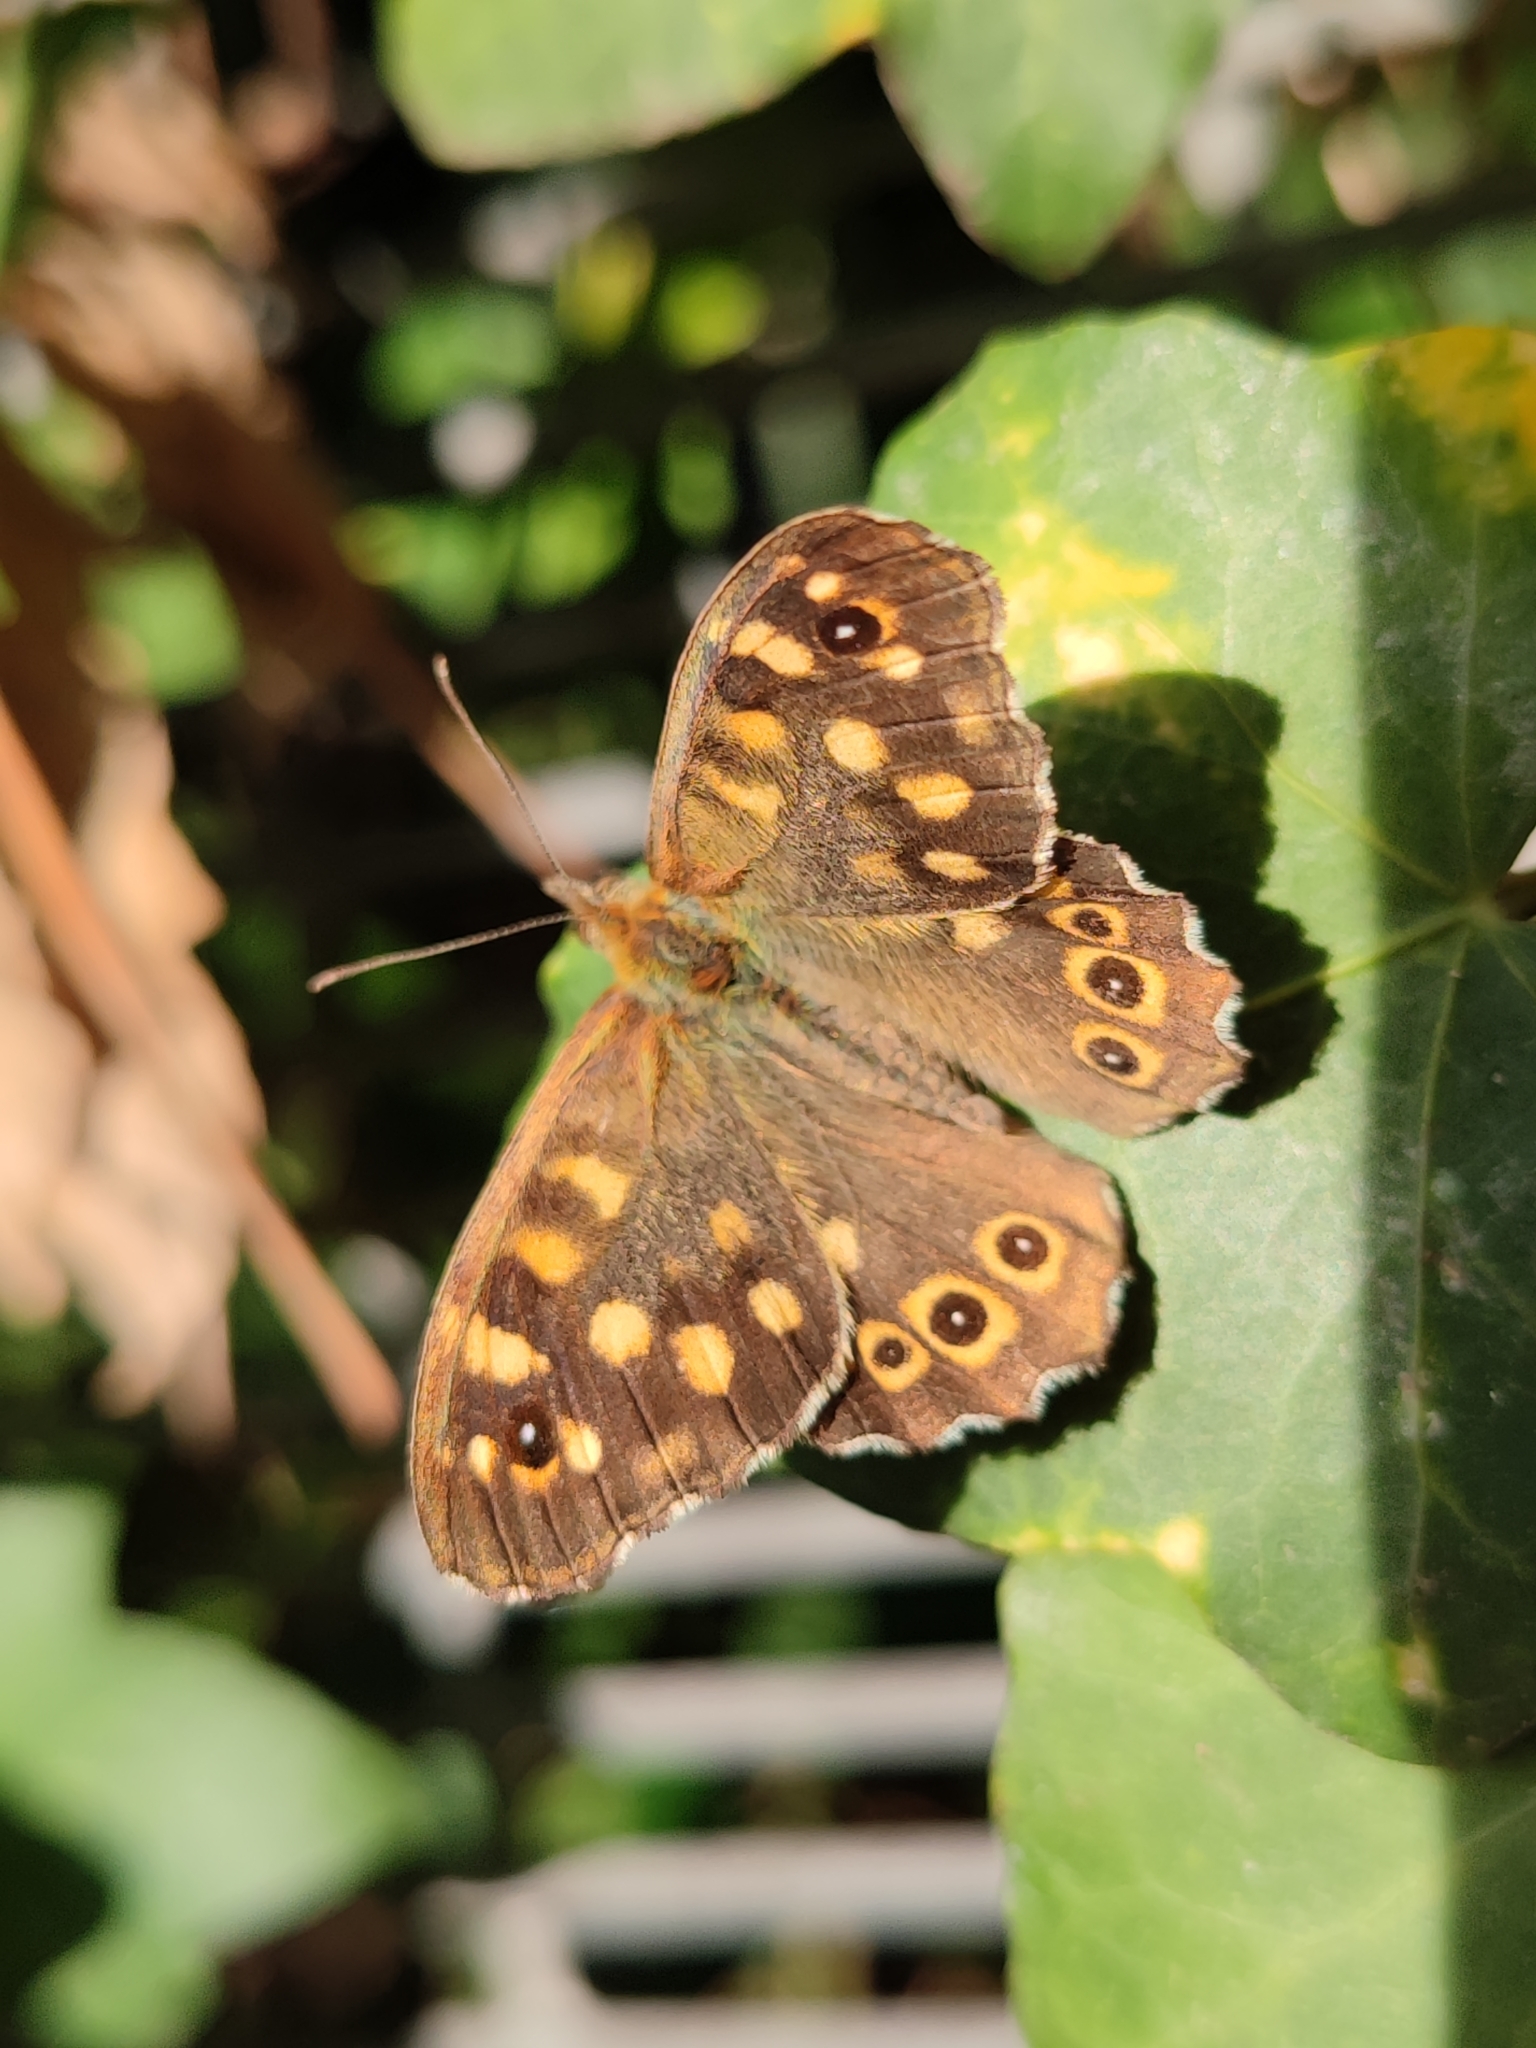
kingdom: Animalia
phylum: Arthropoda
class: Insecta
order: Lepidoptera
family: Nymphalidae
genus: Pararge
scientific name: Pararge aegeria
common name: Speckled wood
